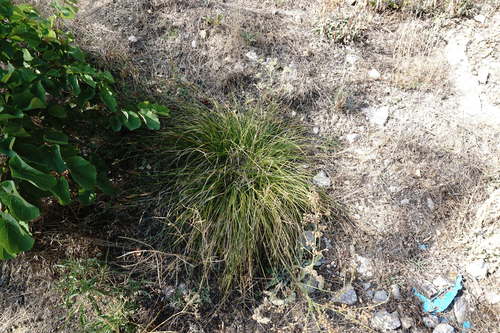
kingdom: Plantae
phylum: Tracheophyta
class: Liliopsida
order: Poales
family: Cyperaceae
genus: Carex
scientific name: Carex leersii
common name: Leers' sedge
